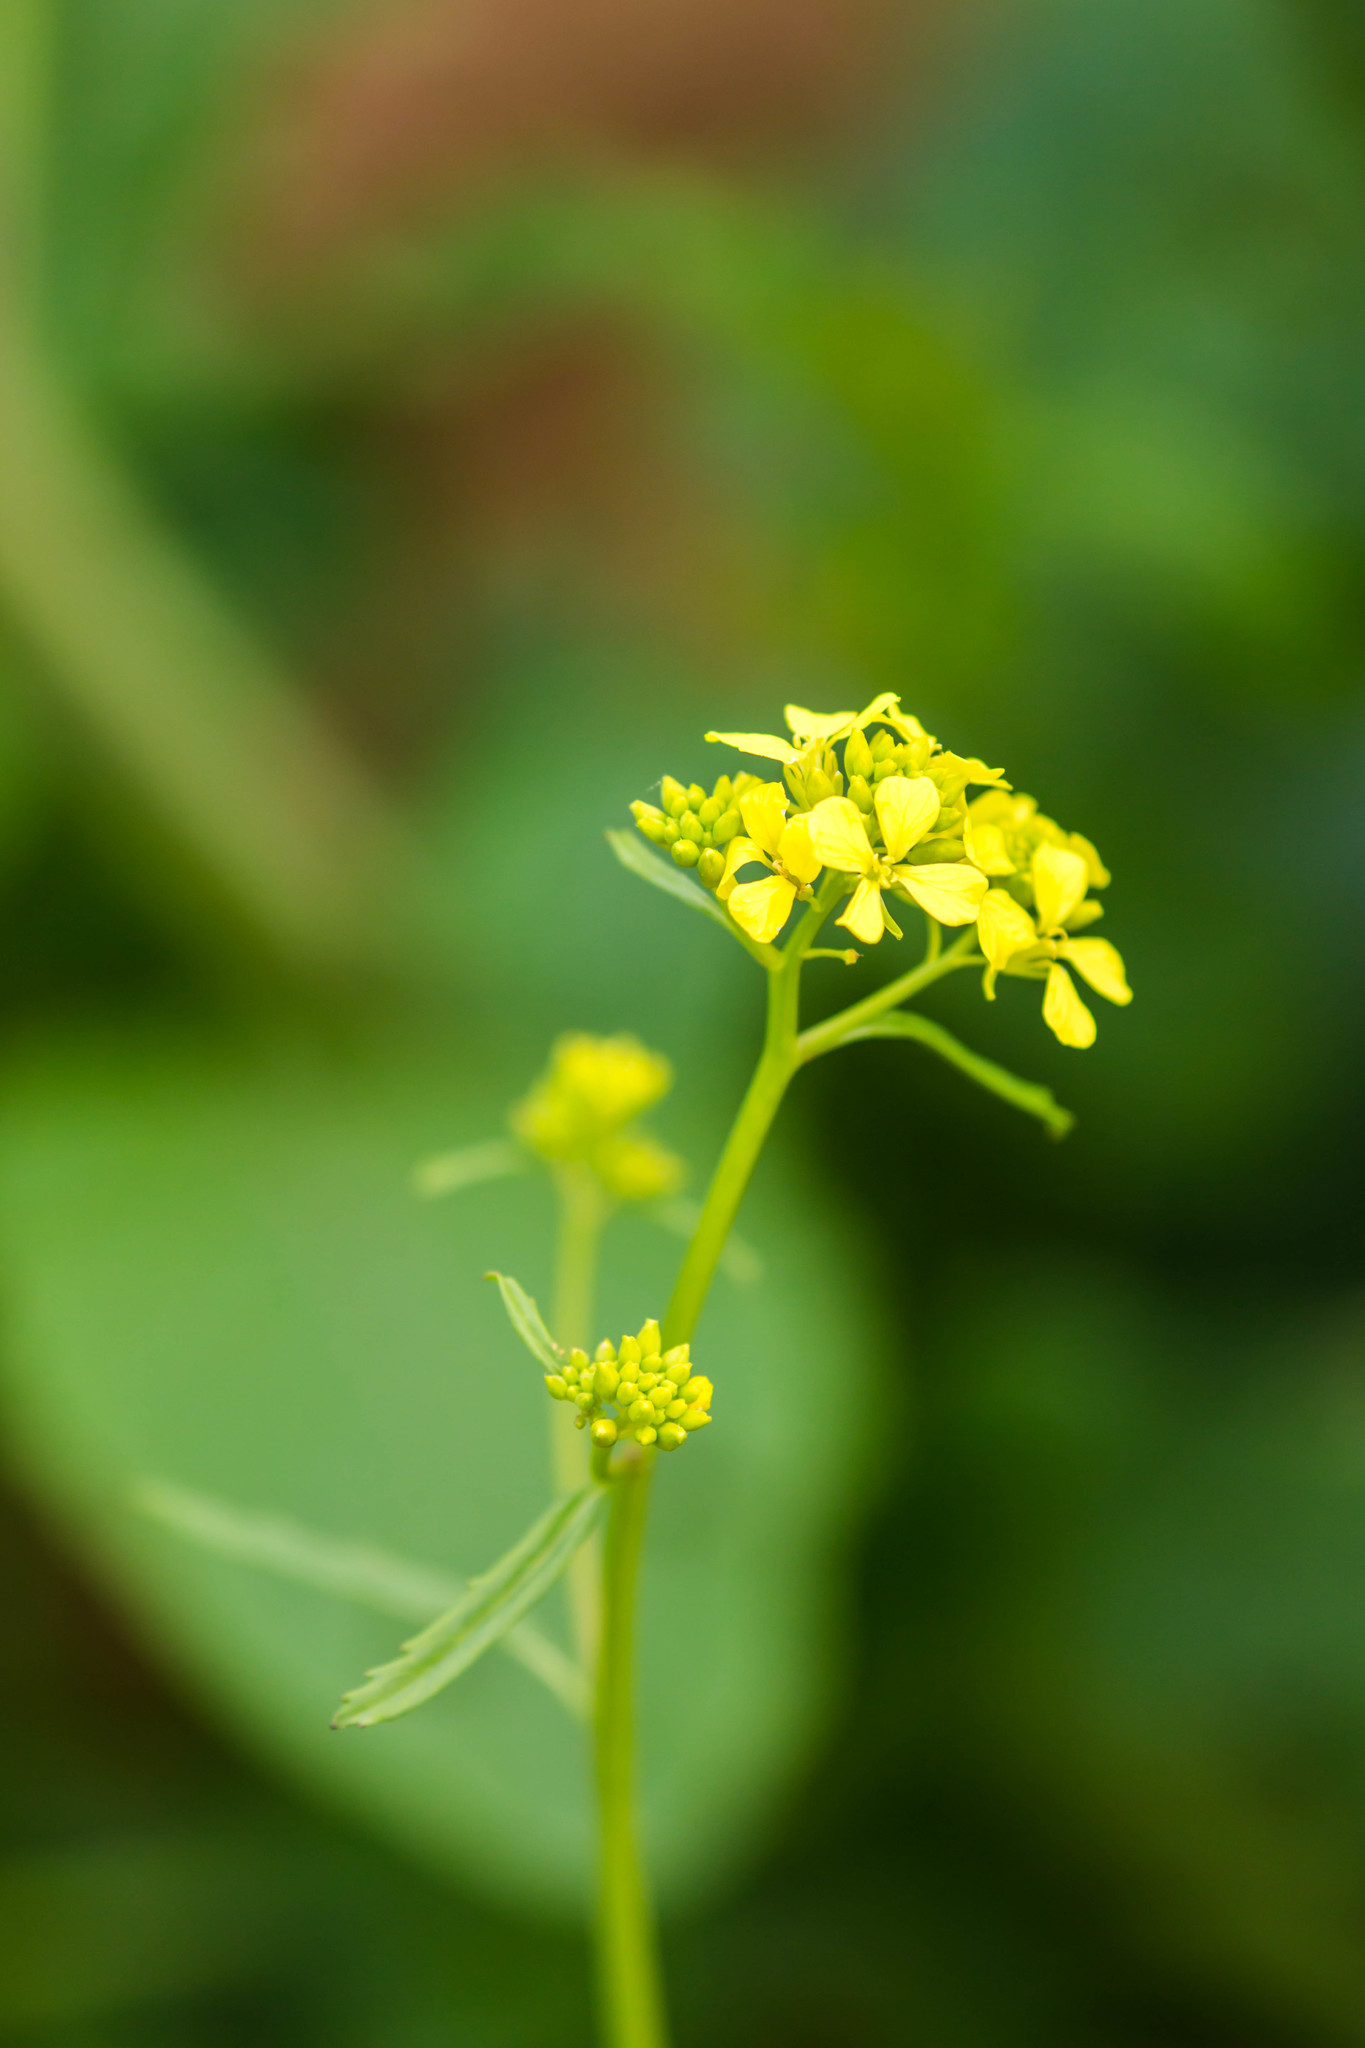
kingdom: Plantae
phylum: Tracheophyta
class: Magnoliopsida
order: Brassicales
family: Brassicaceae
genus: Rapistrum
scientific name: Rapistrum rugosum
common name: Annual bastardcabbage
